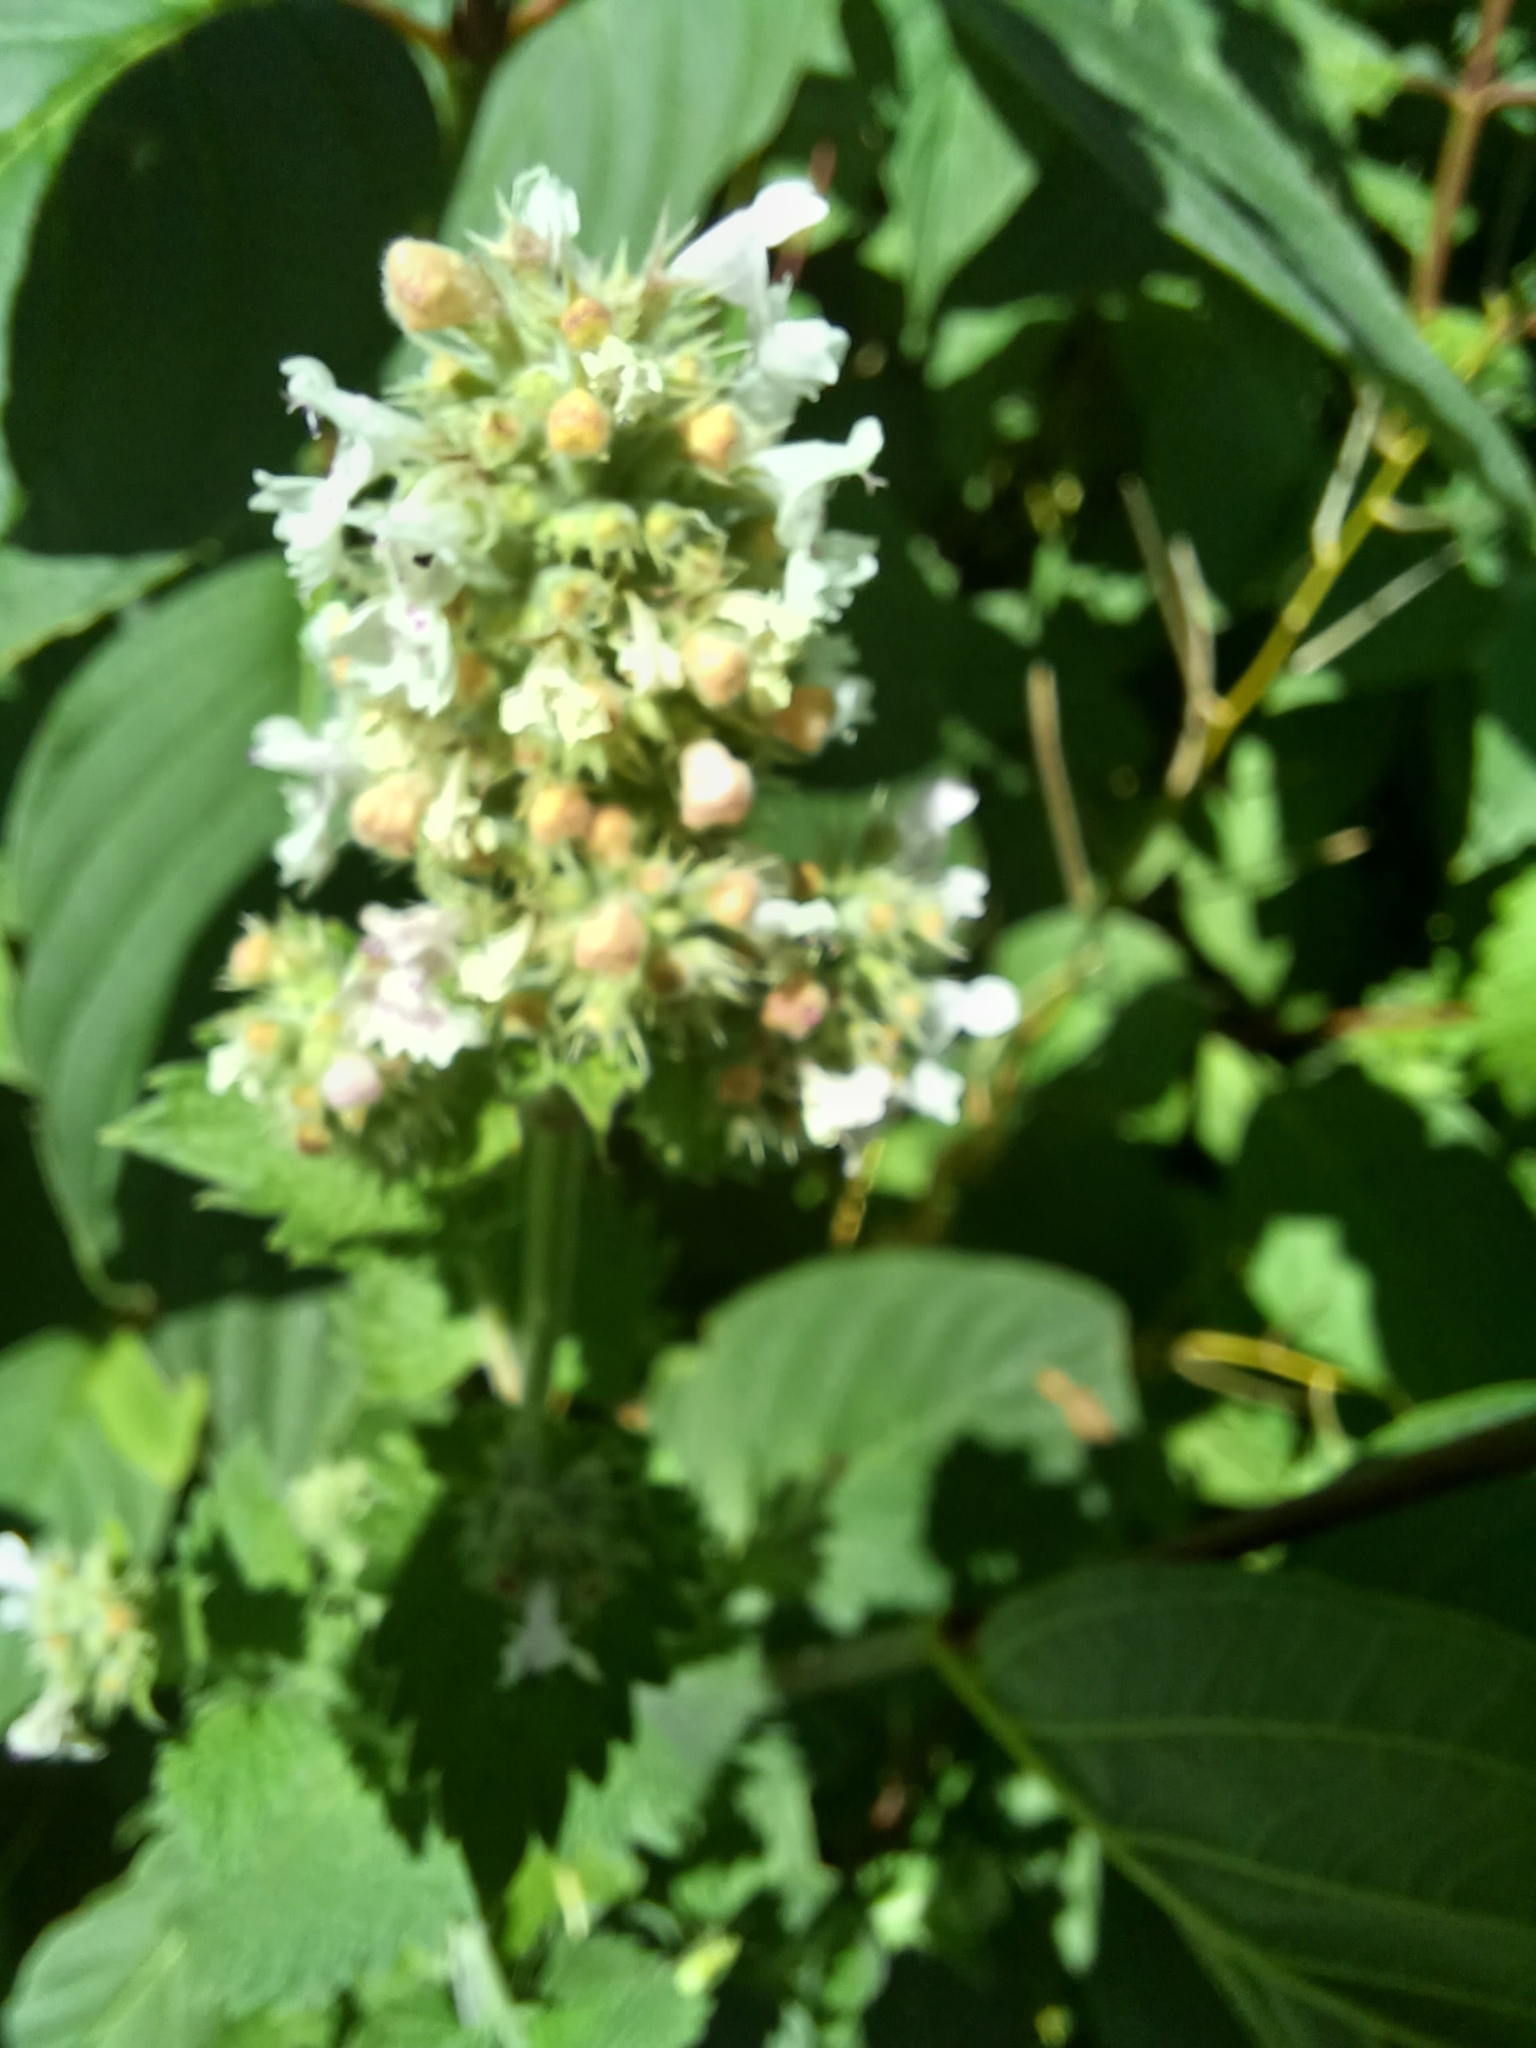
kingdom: Plantae
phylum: Tracheophyta
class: Magnoliopsida
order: Lamiales
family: Lamiaceae
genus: Nepeta
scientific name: Nepeta cataria
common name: Catnip
